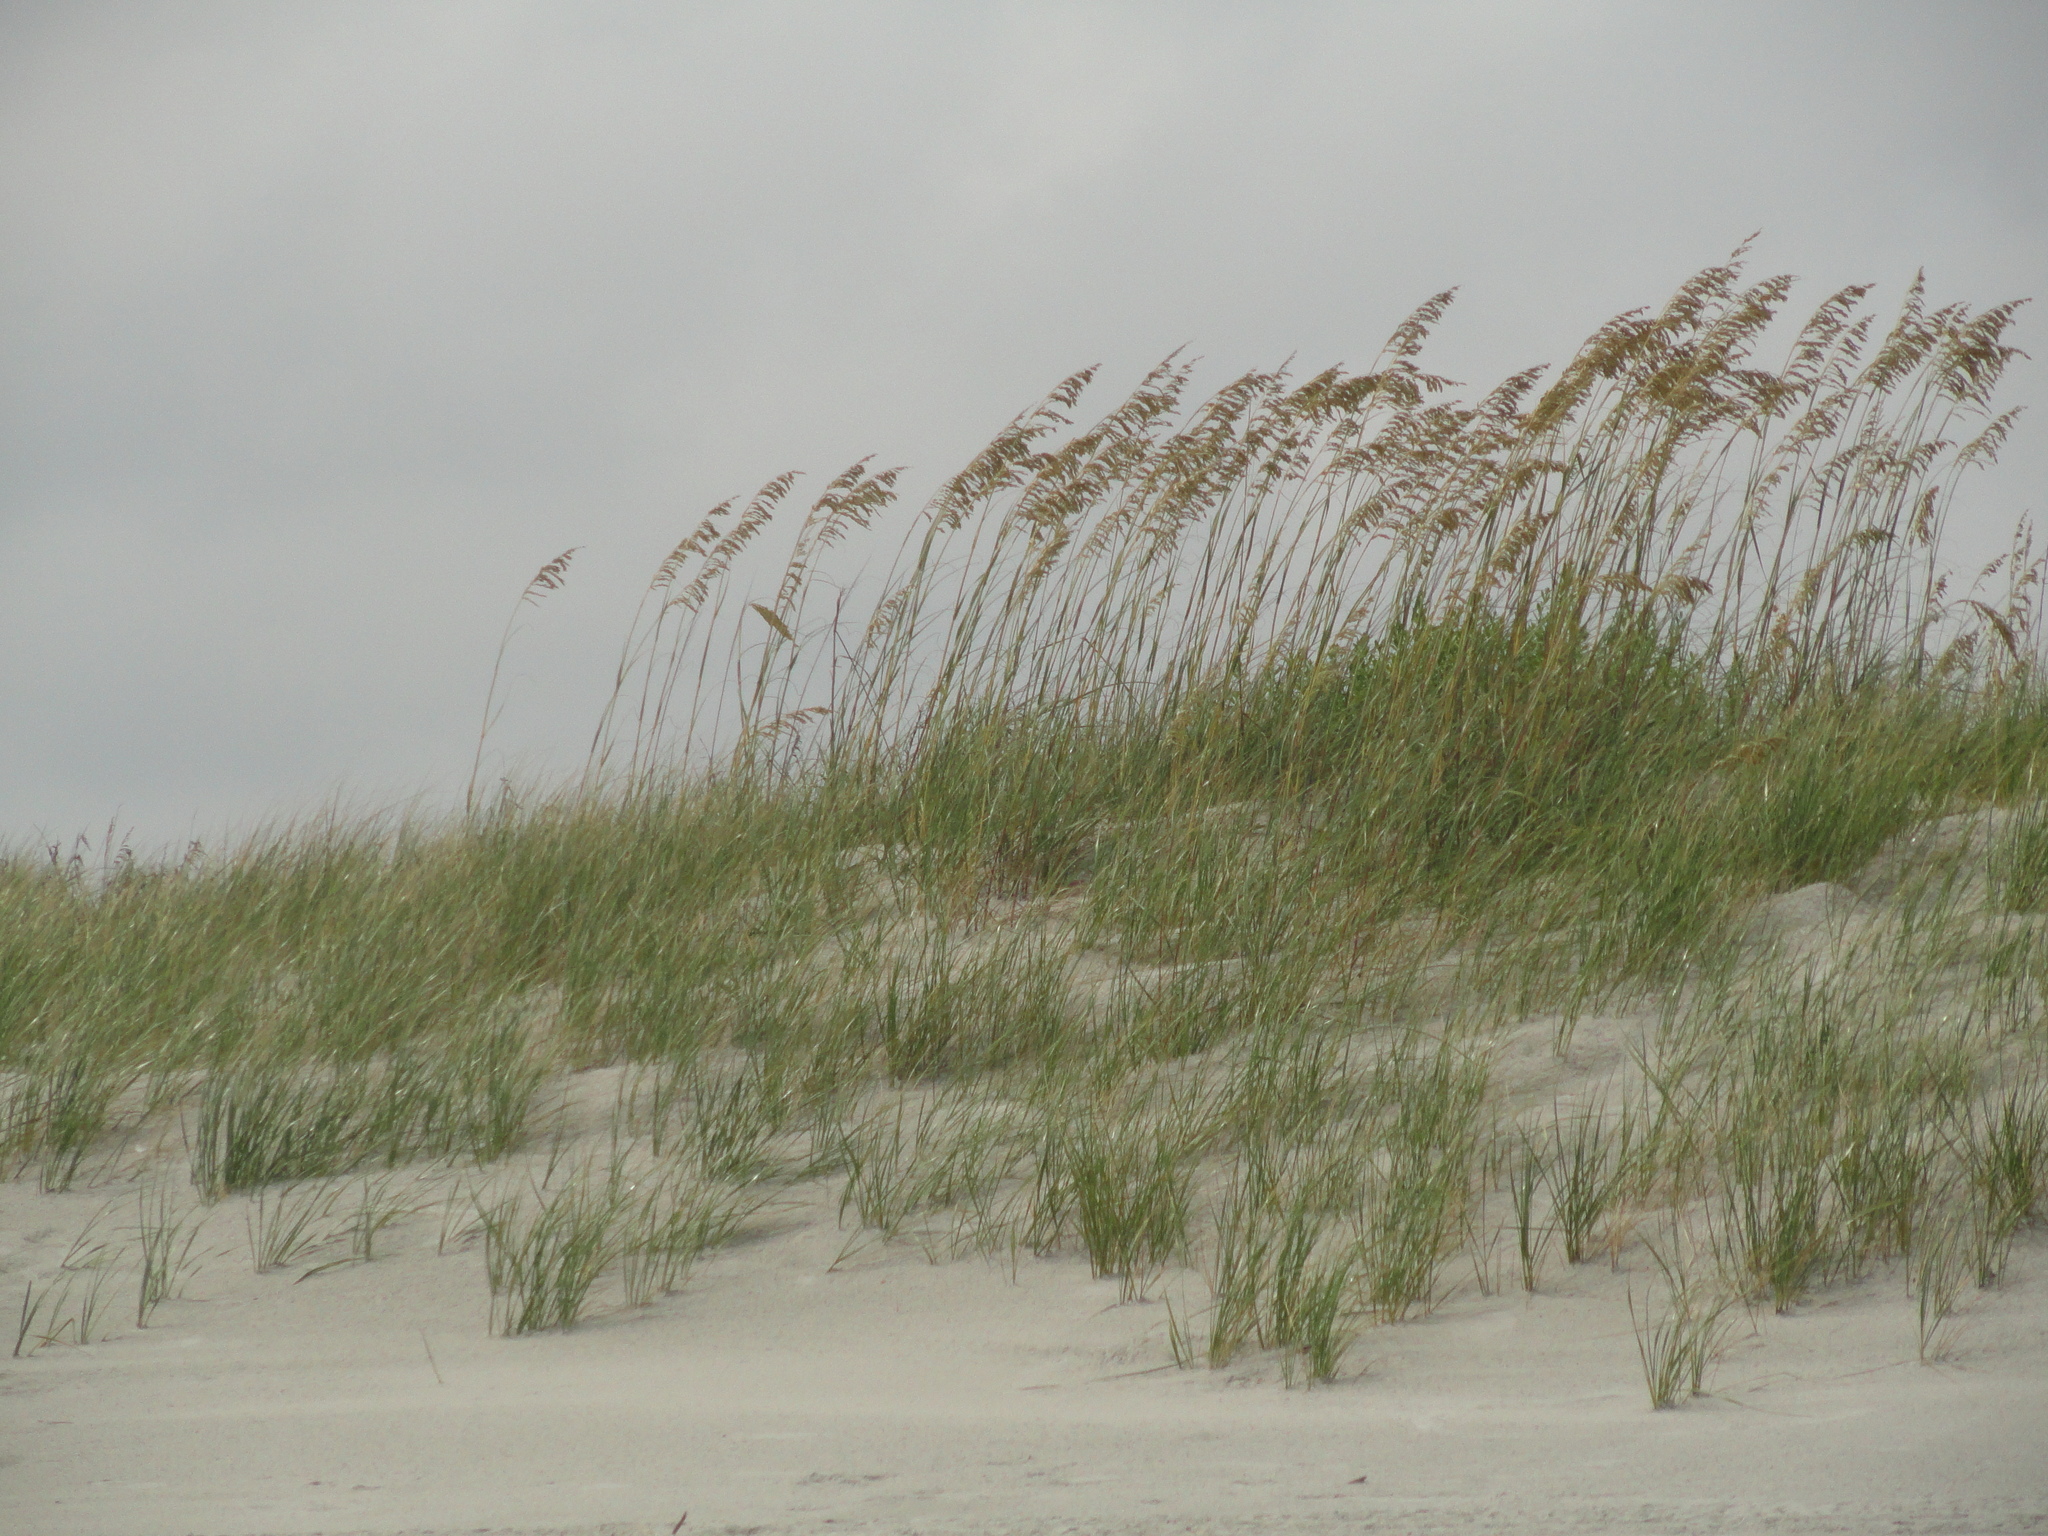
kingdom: Plantae
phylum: Tracheophyta
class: Liliopsida
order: Poales
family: Poaceae
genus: Uniola
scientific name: Uniola paniculata
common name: Seaside-oats
